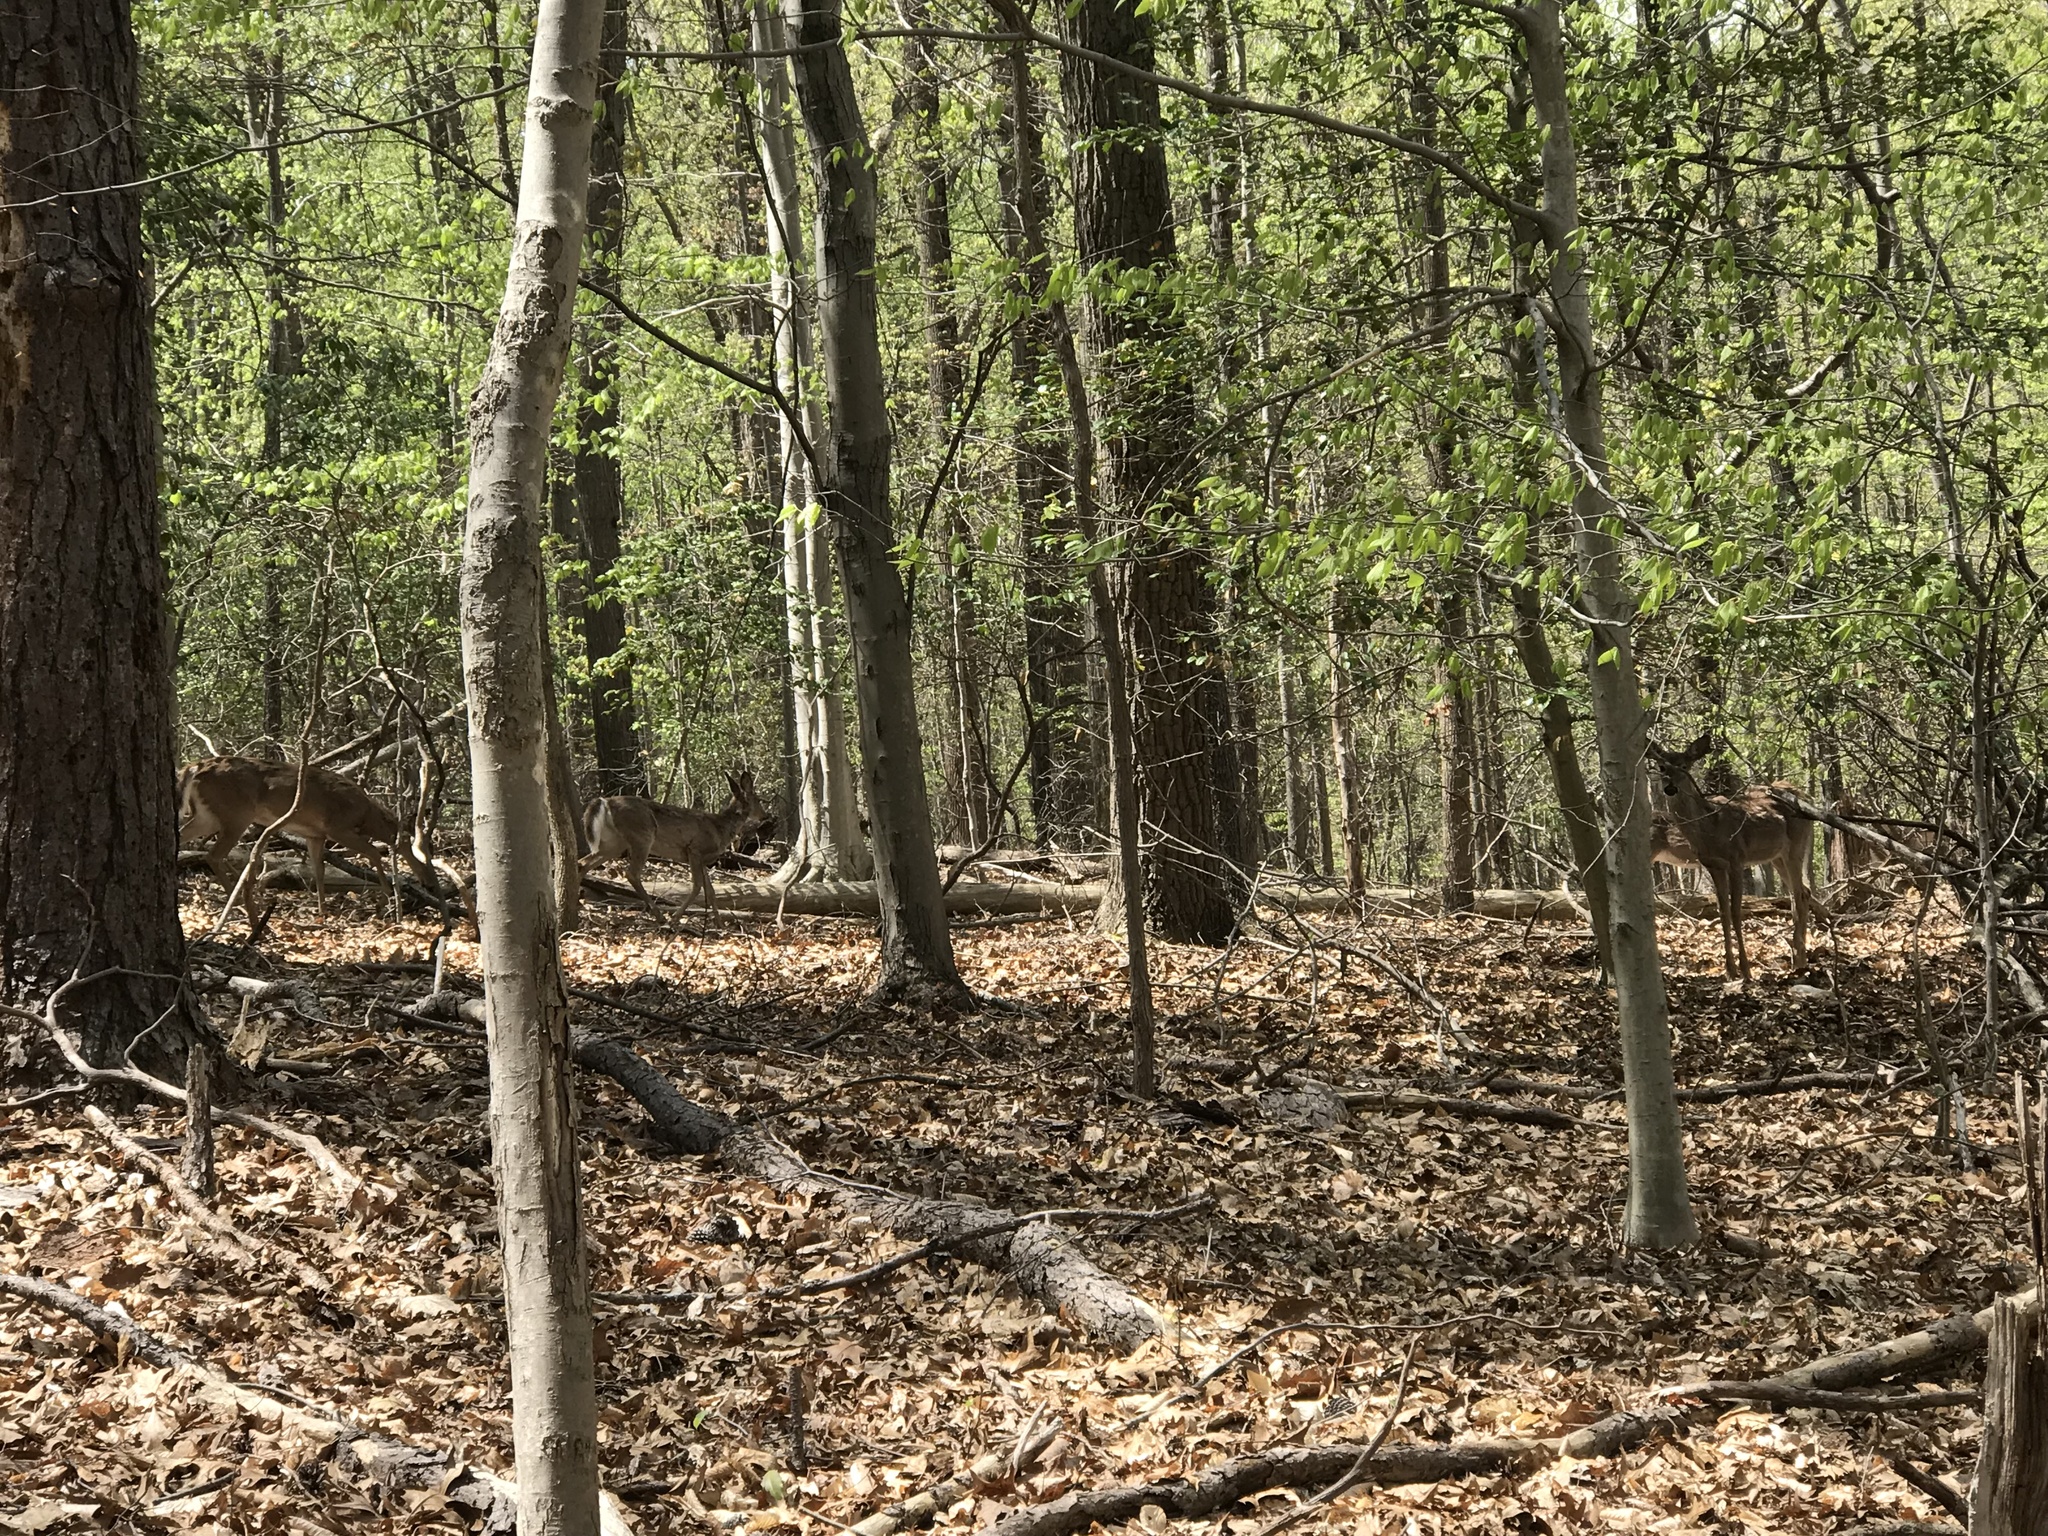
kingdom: Animalia
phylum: Chordata
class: Mammalia
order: Artiodactyla
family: Cervidae
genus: Odocoileus
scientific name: Odocoileus virginianus
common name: White-tailed deer
